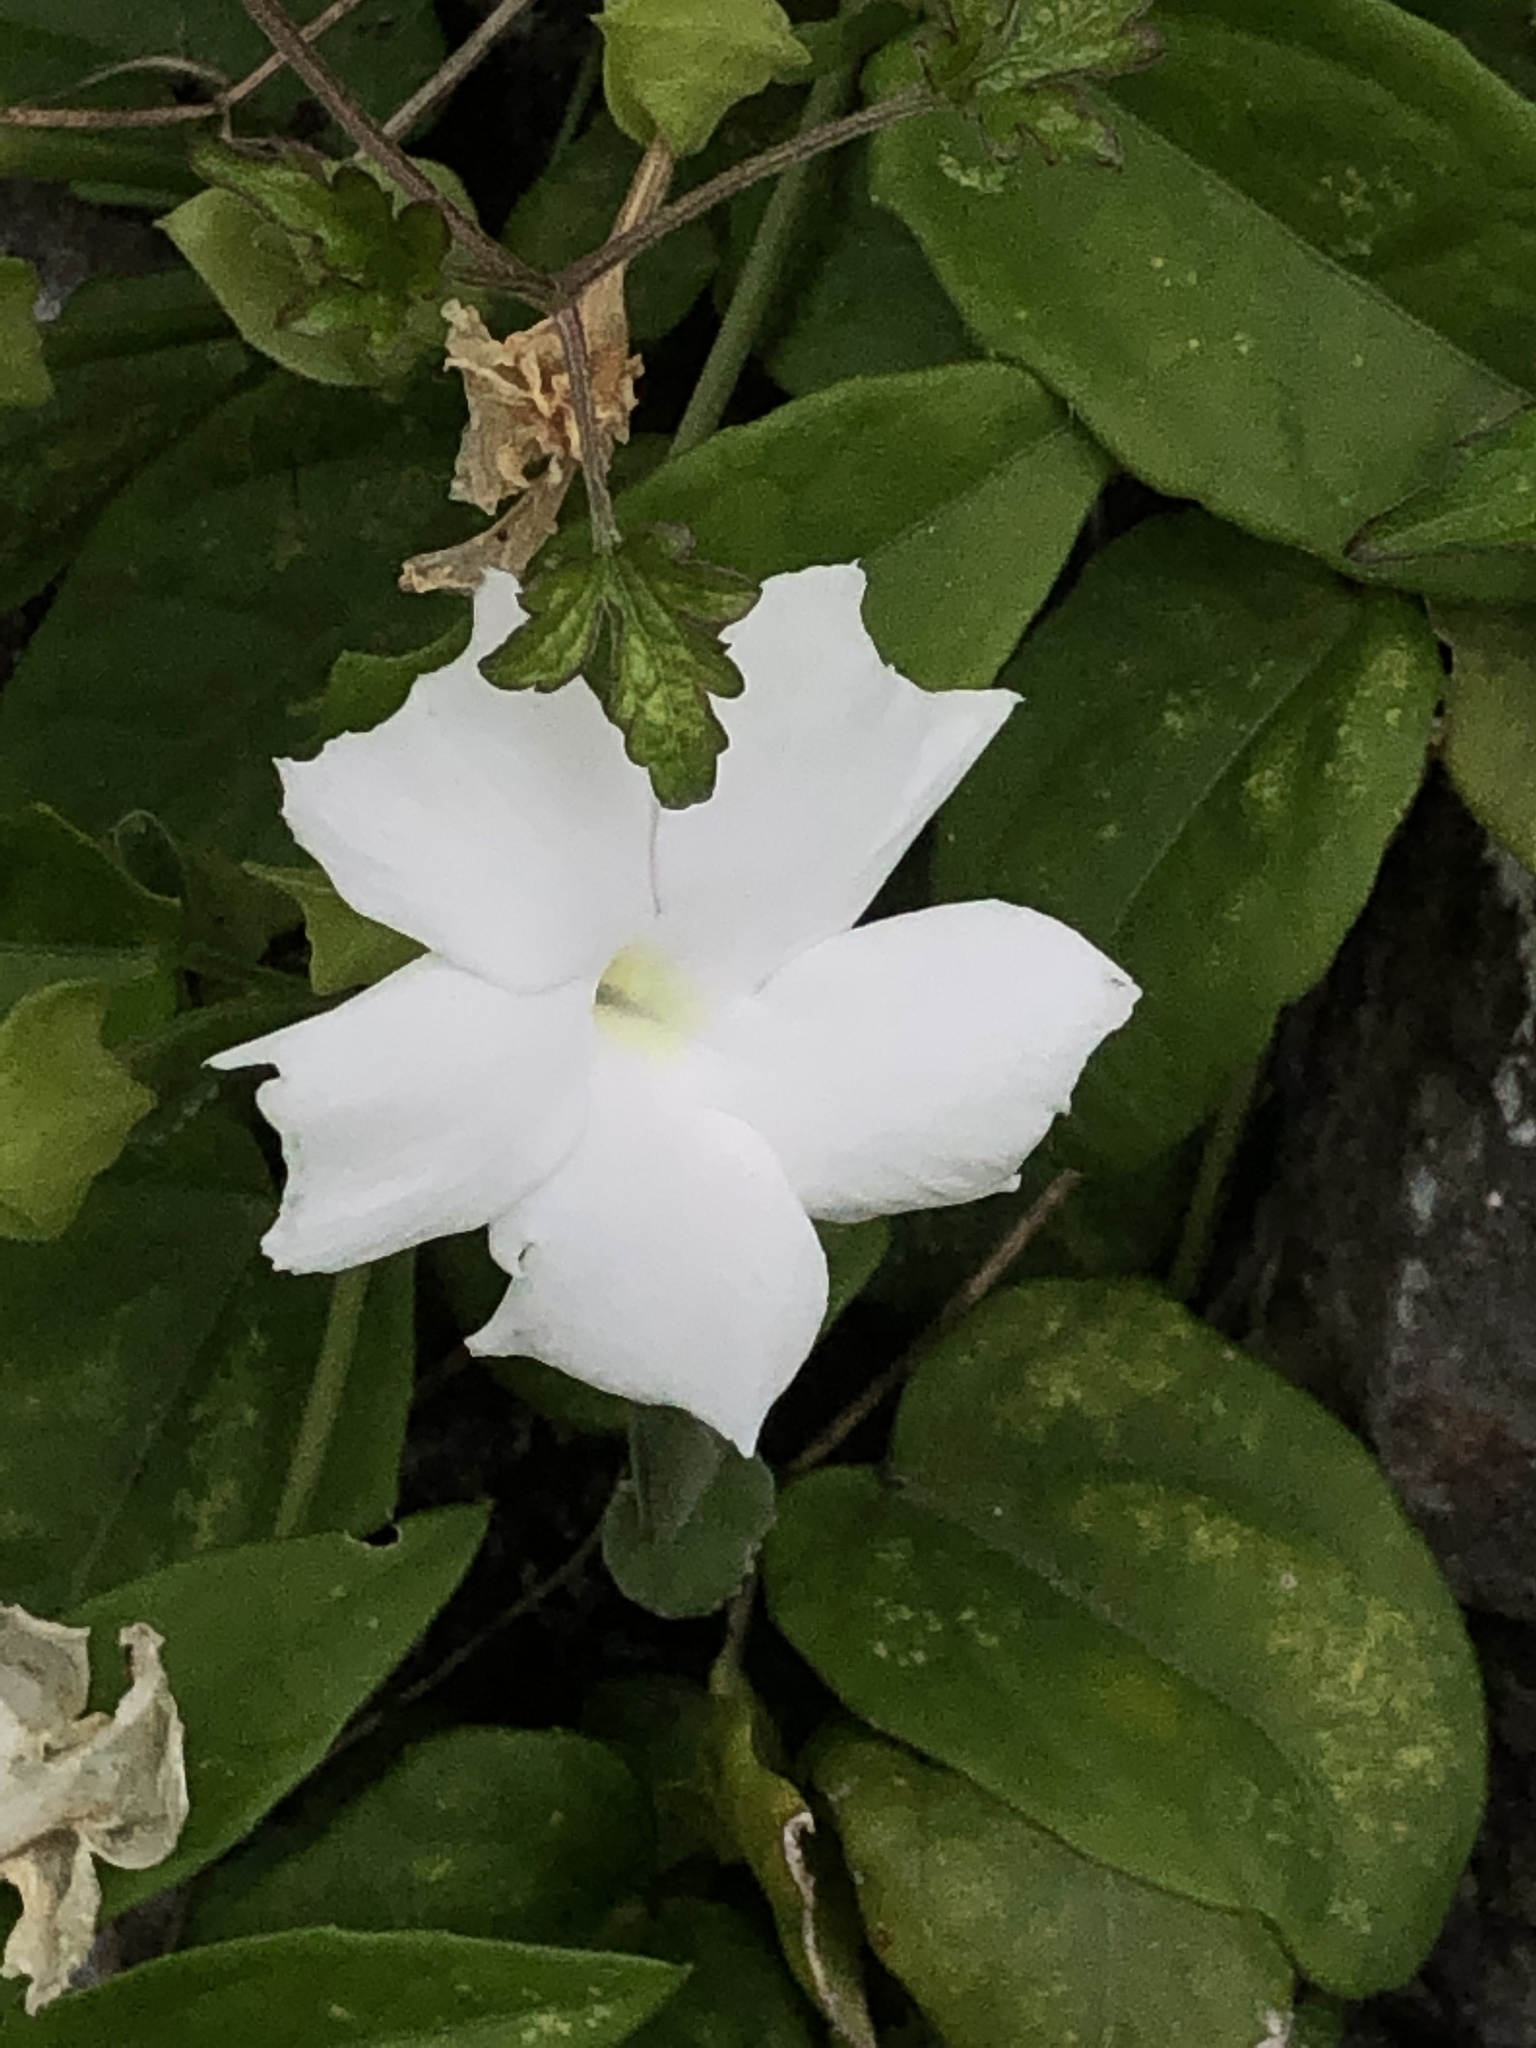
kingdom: Plantae
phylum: Tracheophyta
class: Magnoliopsida
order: Lamiales
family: Acanthaceae
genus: Thunbergia
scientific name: Thunbergia fragrans
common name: Whitelady
